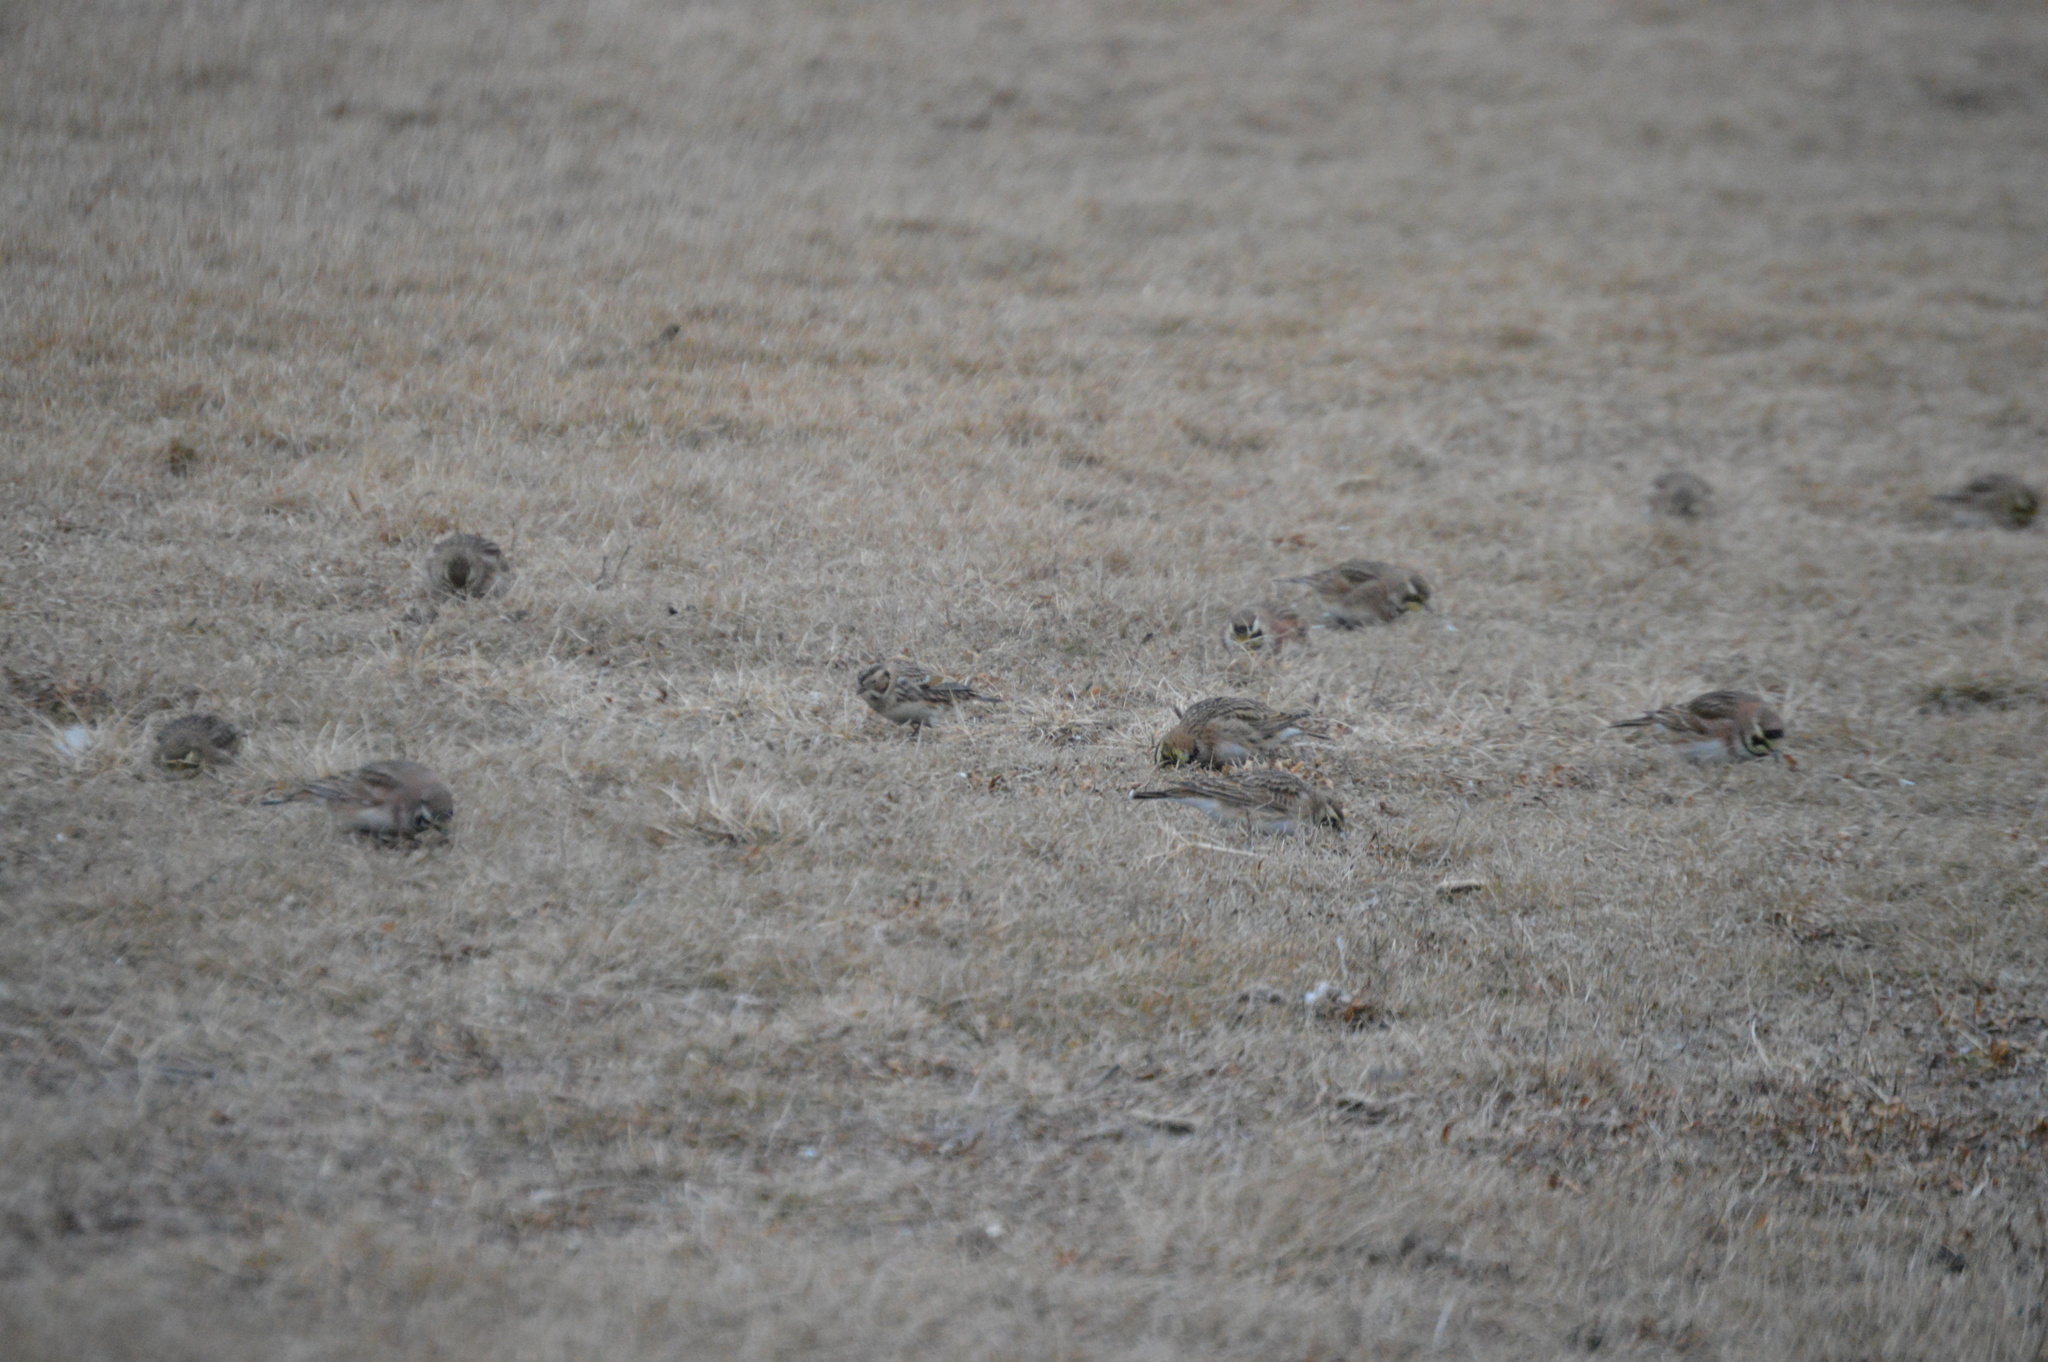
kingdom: Animalia
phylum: Chordata
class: Aves
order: Passeriformes
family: Calcariidae
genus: Calcarius
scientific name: Calcarius lapponicus
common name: Lapland longspur
